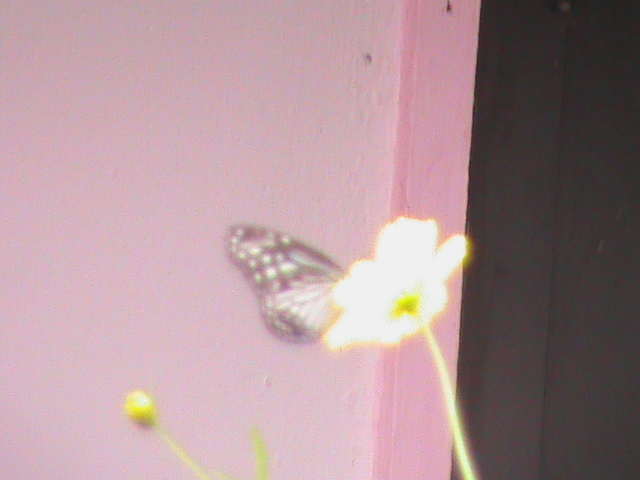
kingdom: Animalia
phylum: Arthropoda
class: Insecta
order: Lepidoptera
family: Nymphalidae
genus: Parantica
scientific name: Parantica aglea
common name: Glassy tiger
